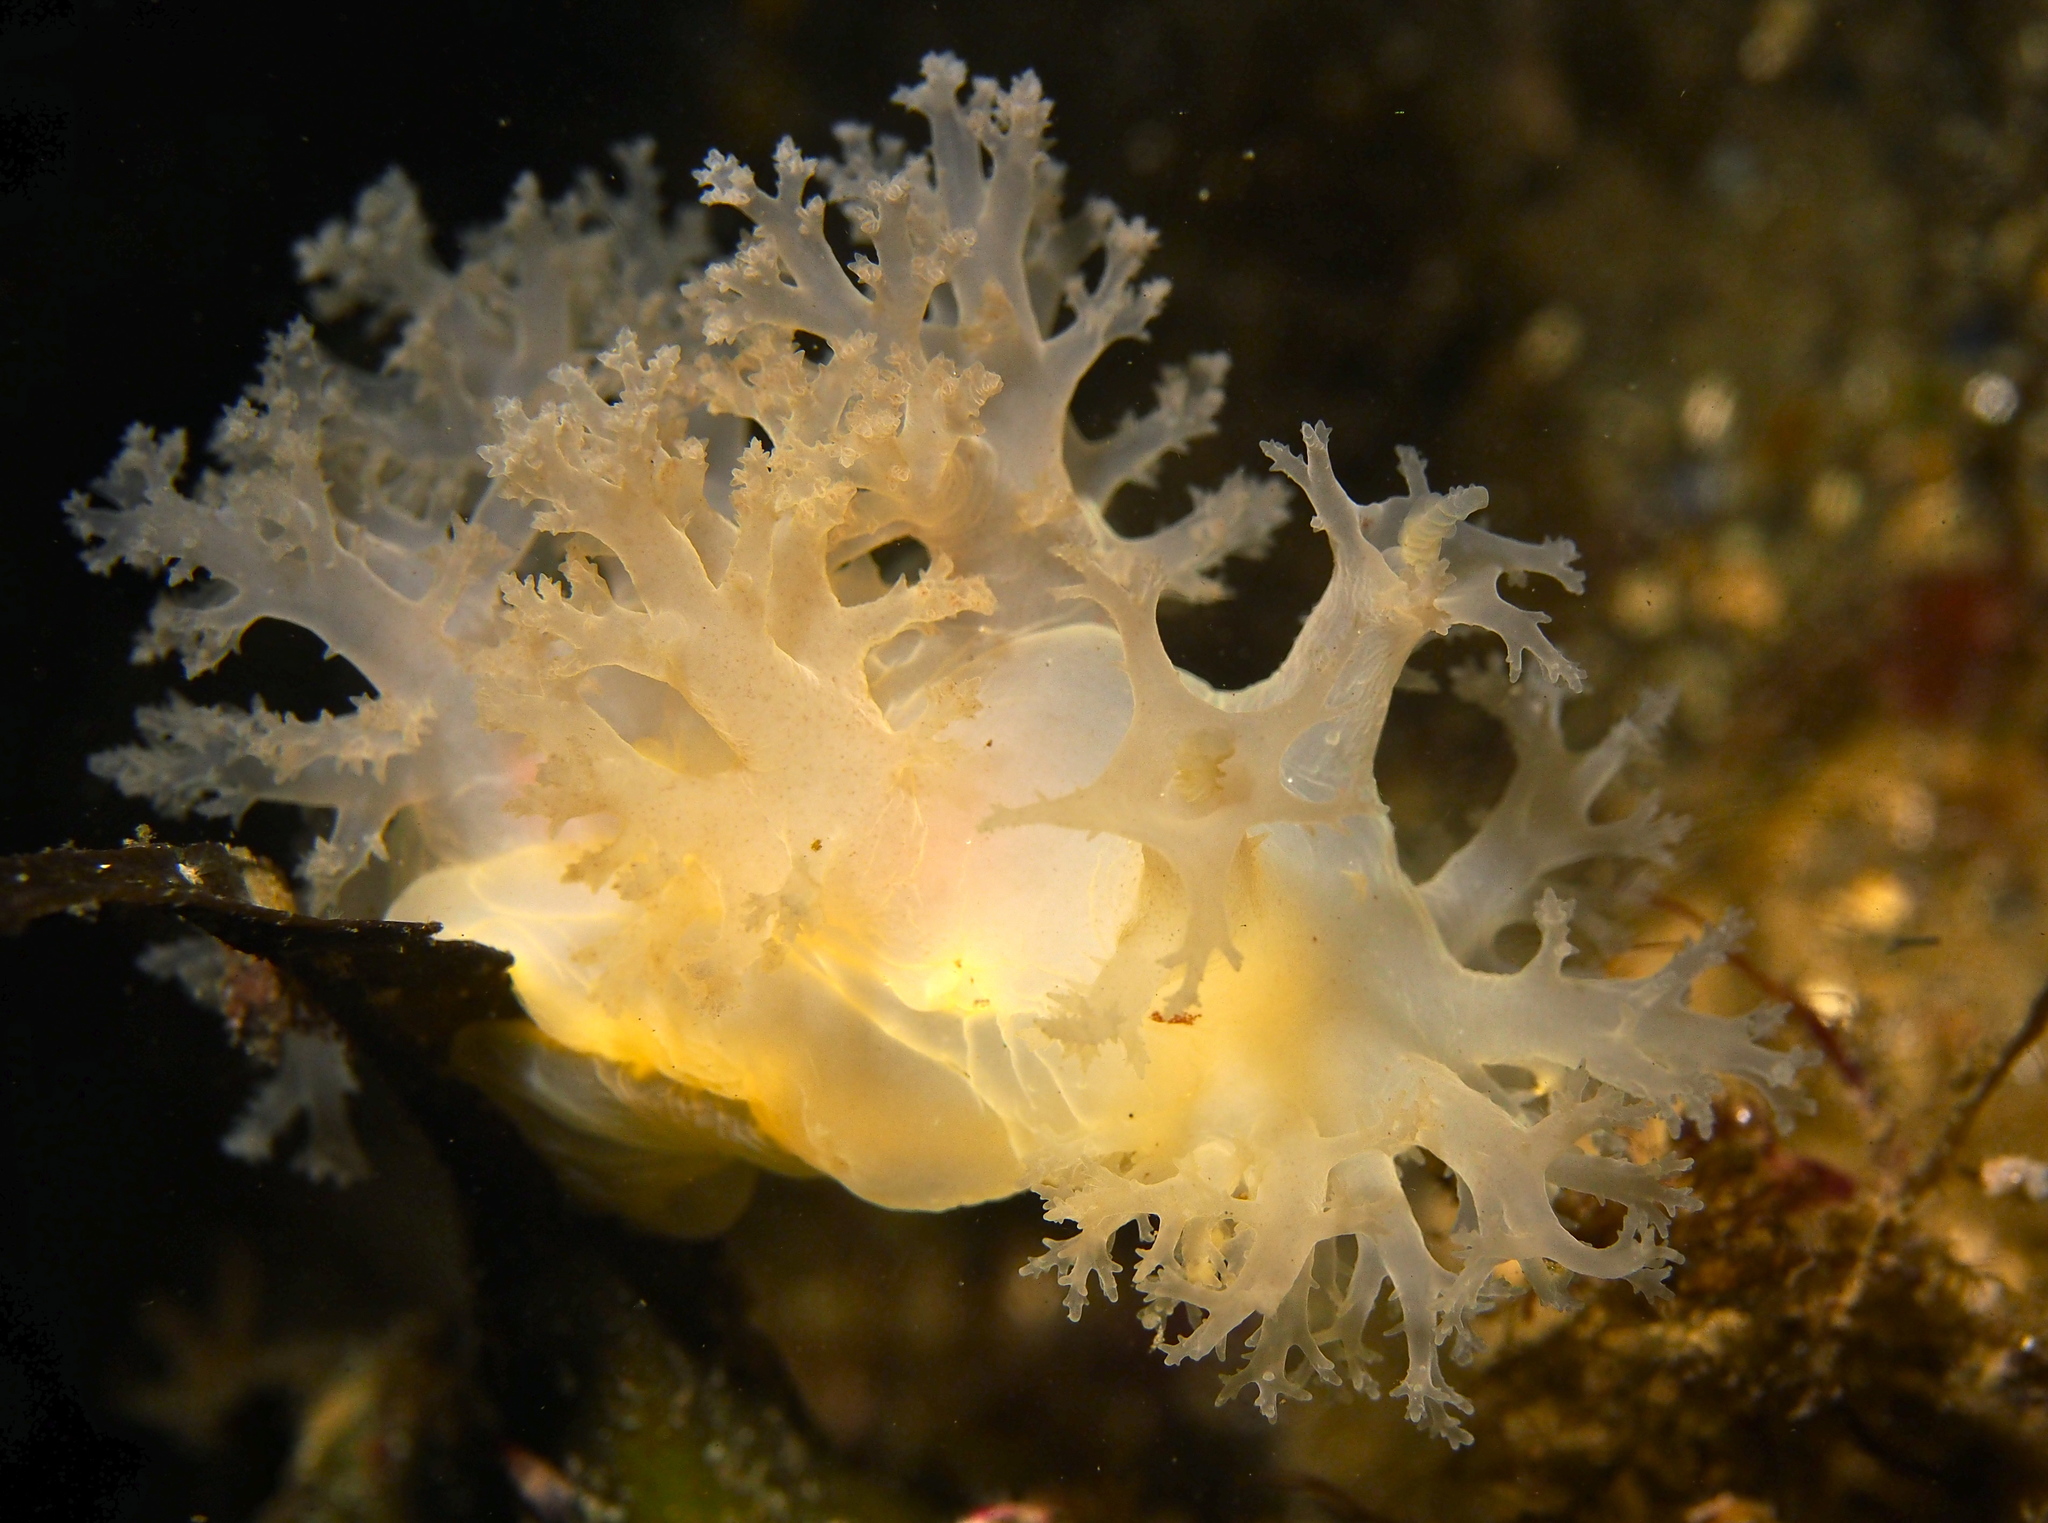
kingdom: Animalia
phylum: Mollusca
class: Gastropoda
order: Nudibranchia
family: Dendronotidae
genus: Dendronotus
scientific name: Dendronotus lacteus
